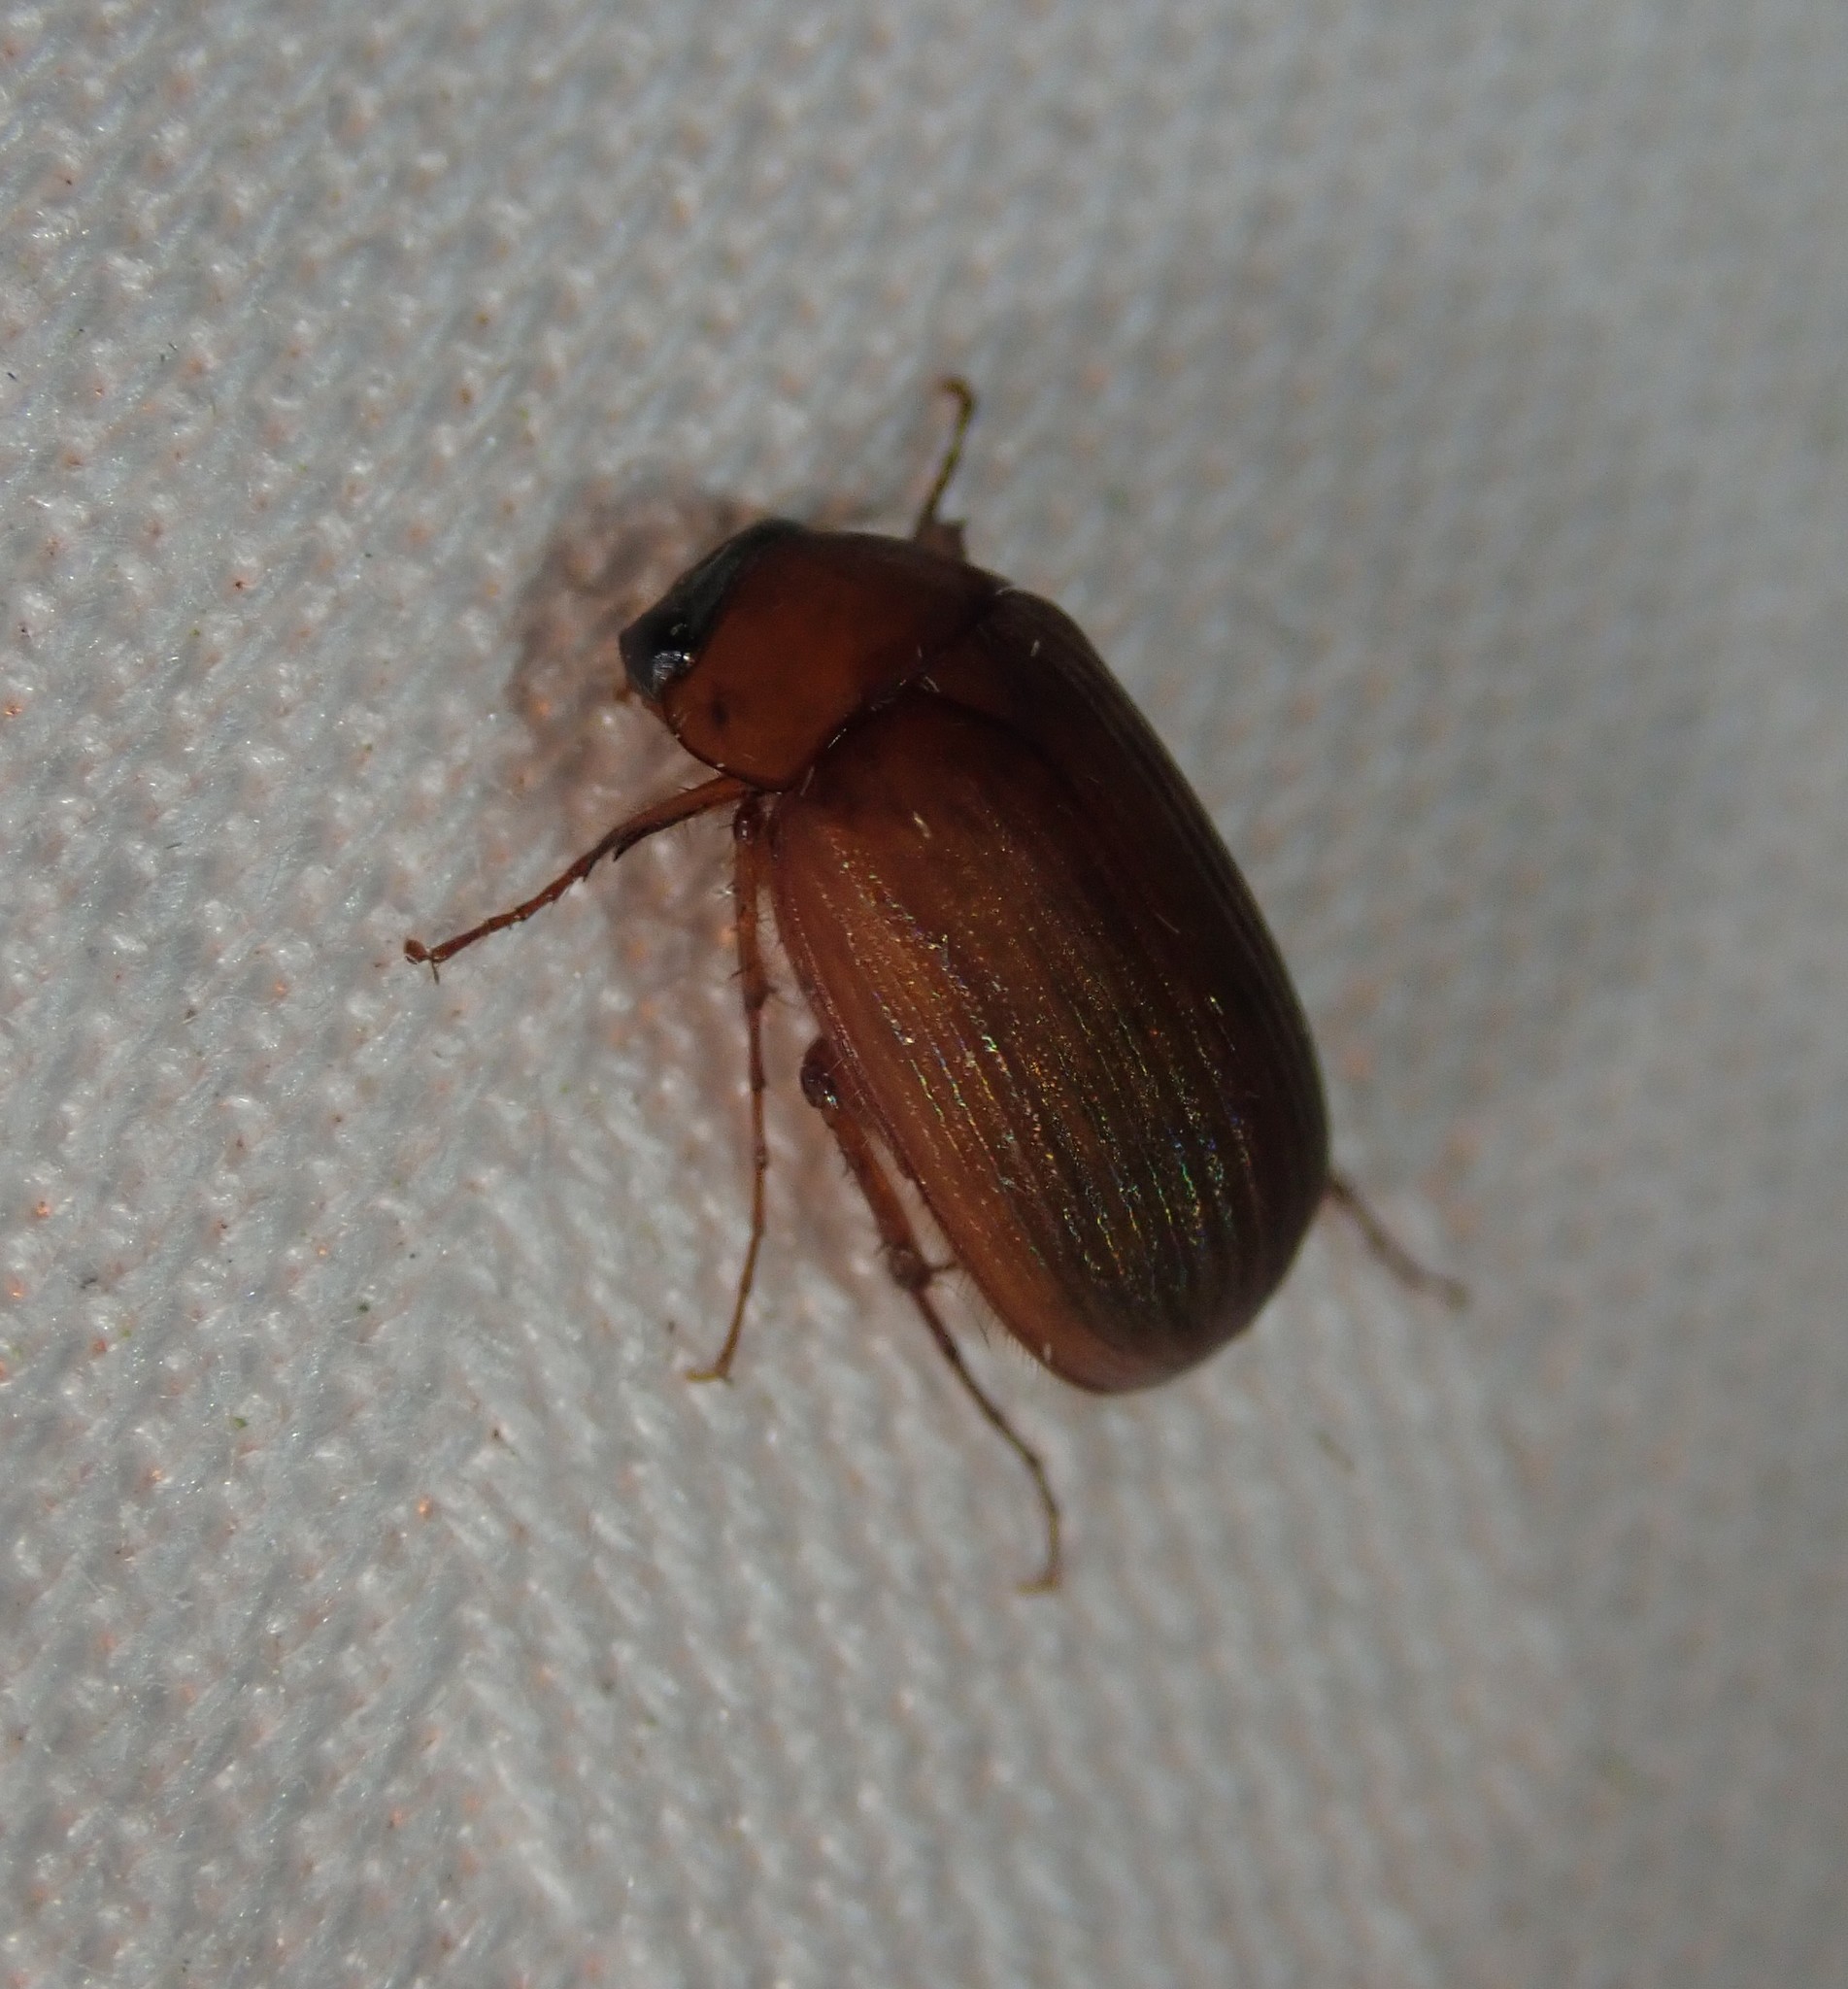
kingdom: Animalia
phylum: Arthropoda
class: Insecta
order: Coleoptera
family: Scarabaeidae
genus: Serica
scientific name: Serica brunnea
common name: Brown chafer
